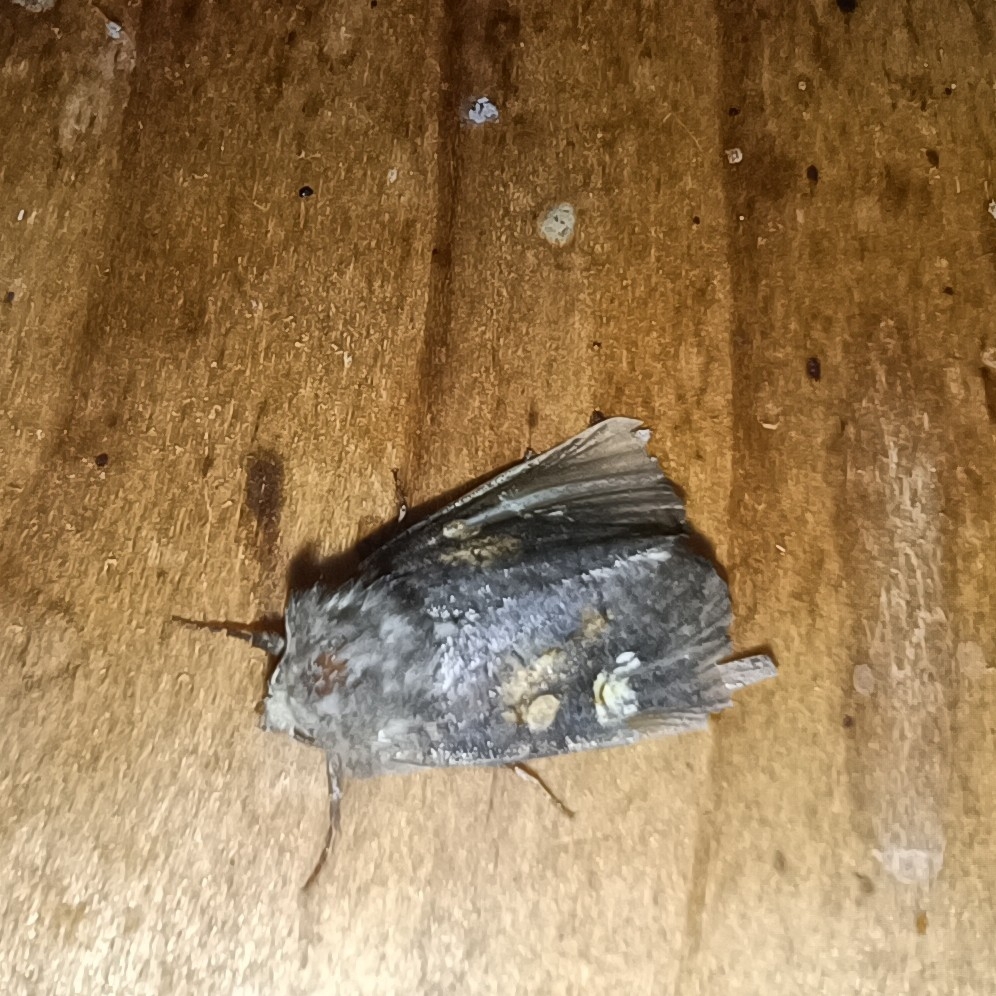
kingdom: Animalia
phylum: Arthropoda
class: Insecta
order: Lepidoptera
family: Noctuidae
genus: Amphipoea
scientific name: Amphipoea oculea
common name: Ear moth
